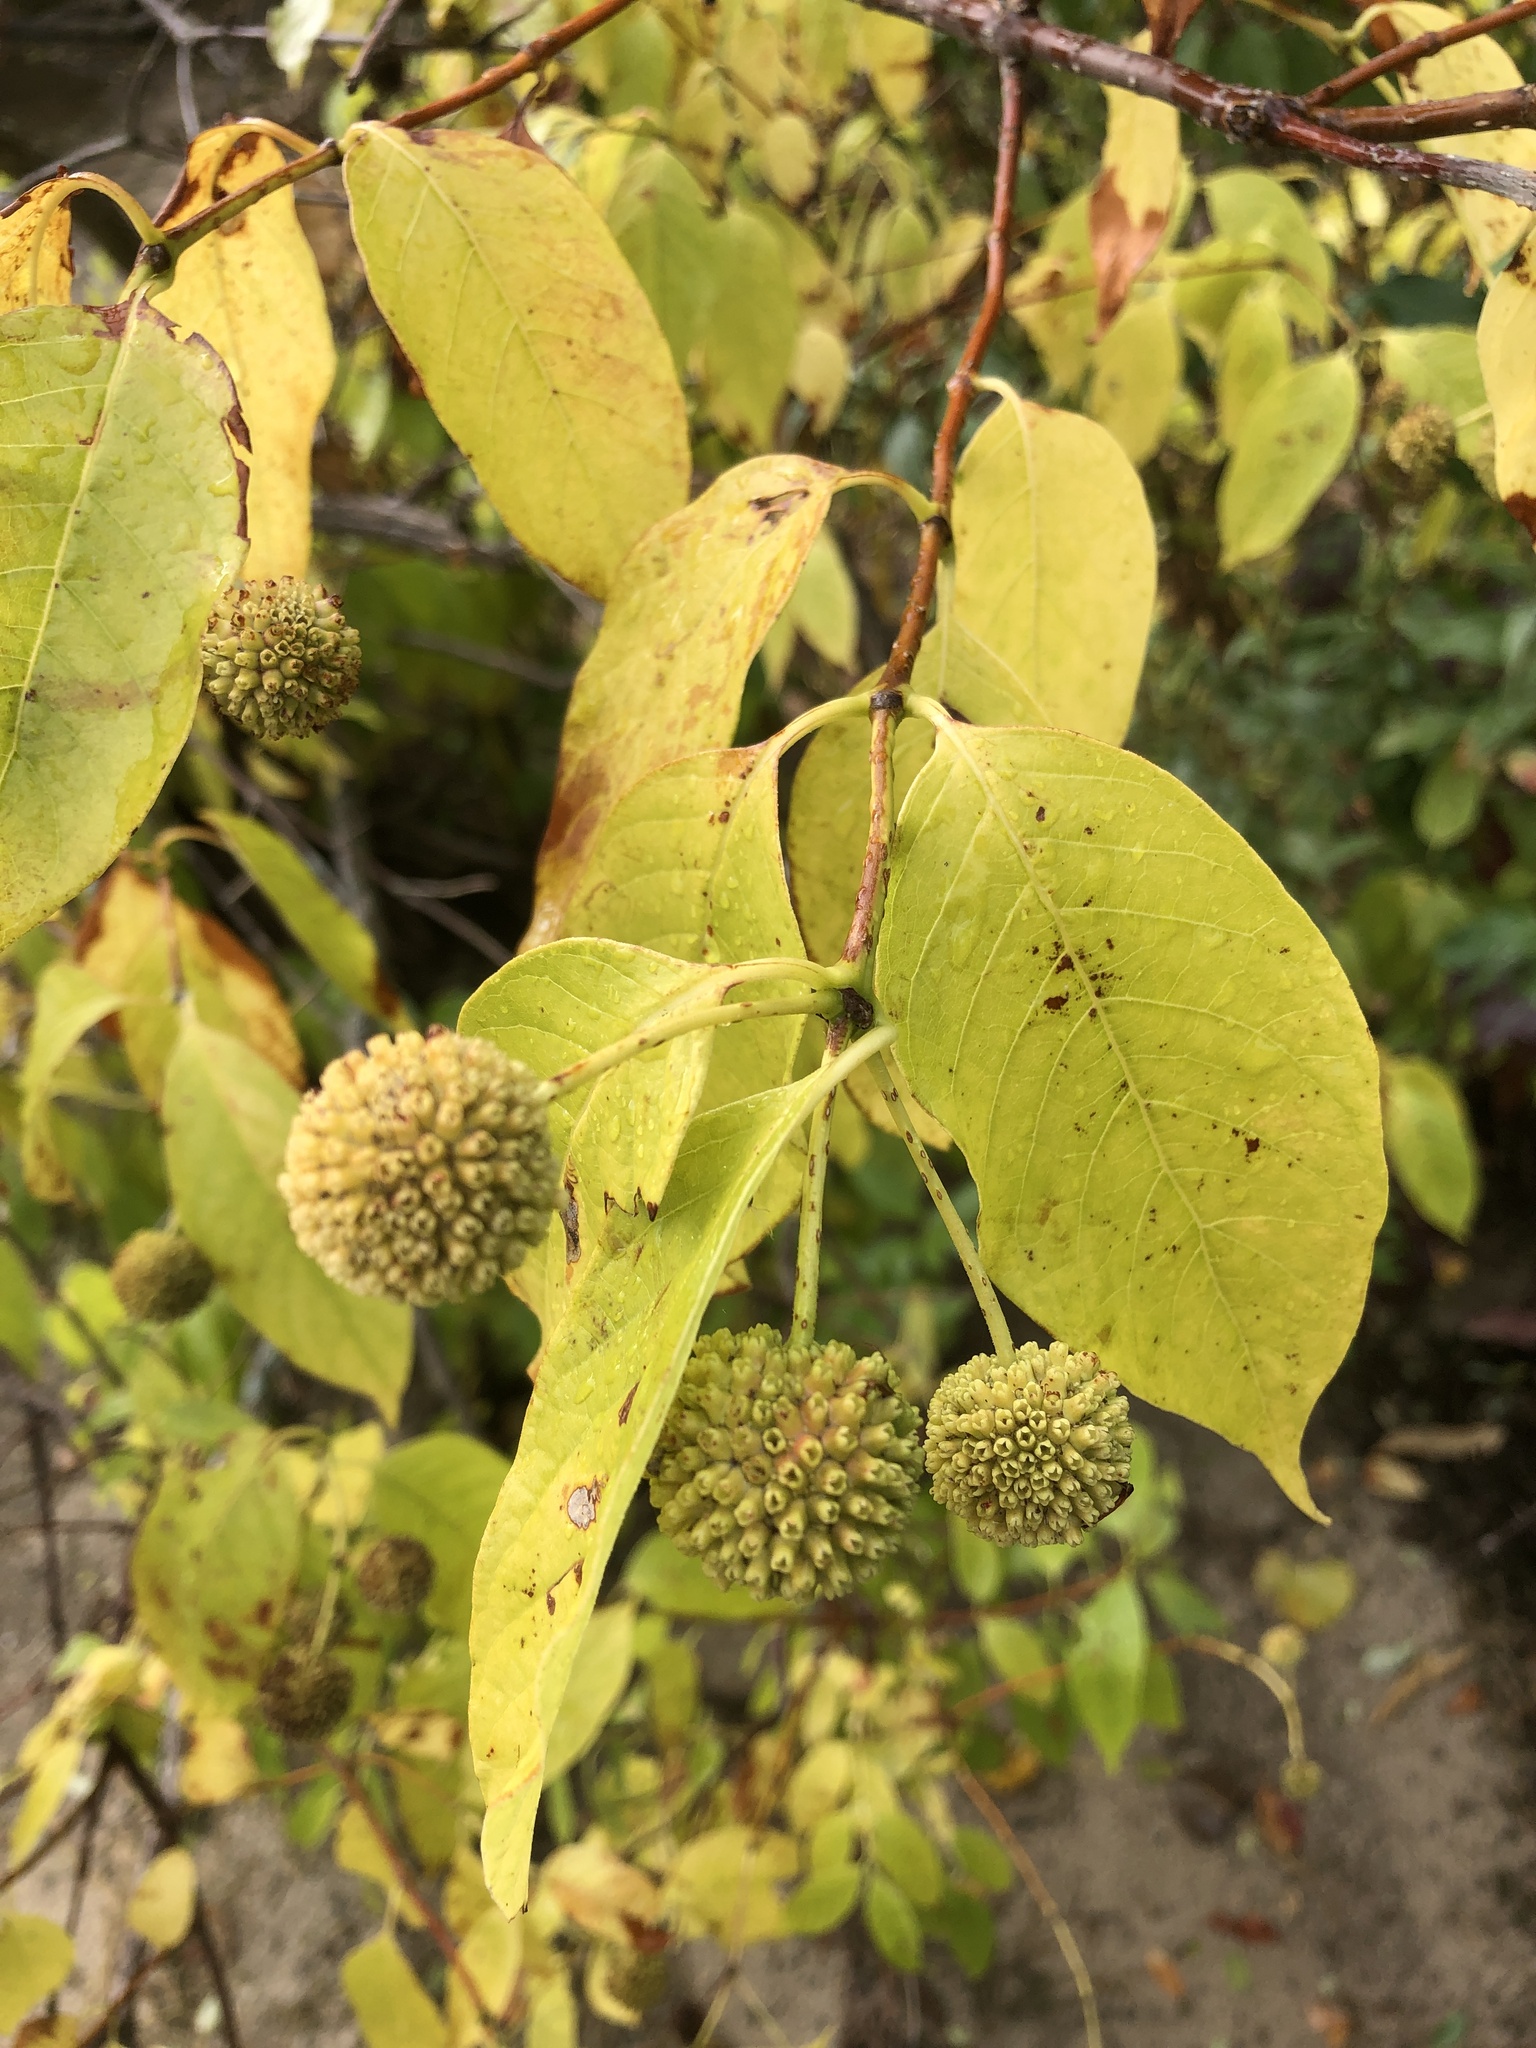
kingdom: Plantae
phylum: Tracheophyta
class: Magnoliopsida
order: Gentianales
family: Rubiaceae
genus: Cephalanthus
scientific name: Cephalanthus occidentalis
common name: Button-willow
